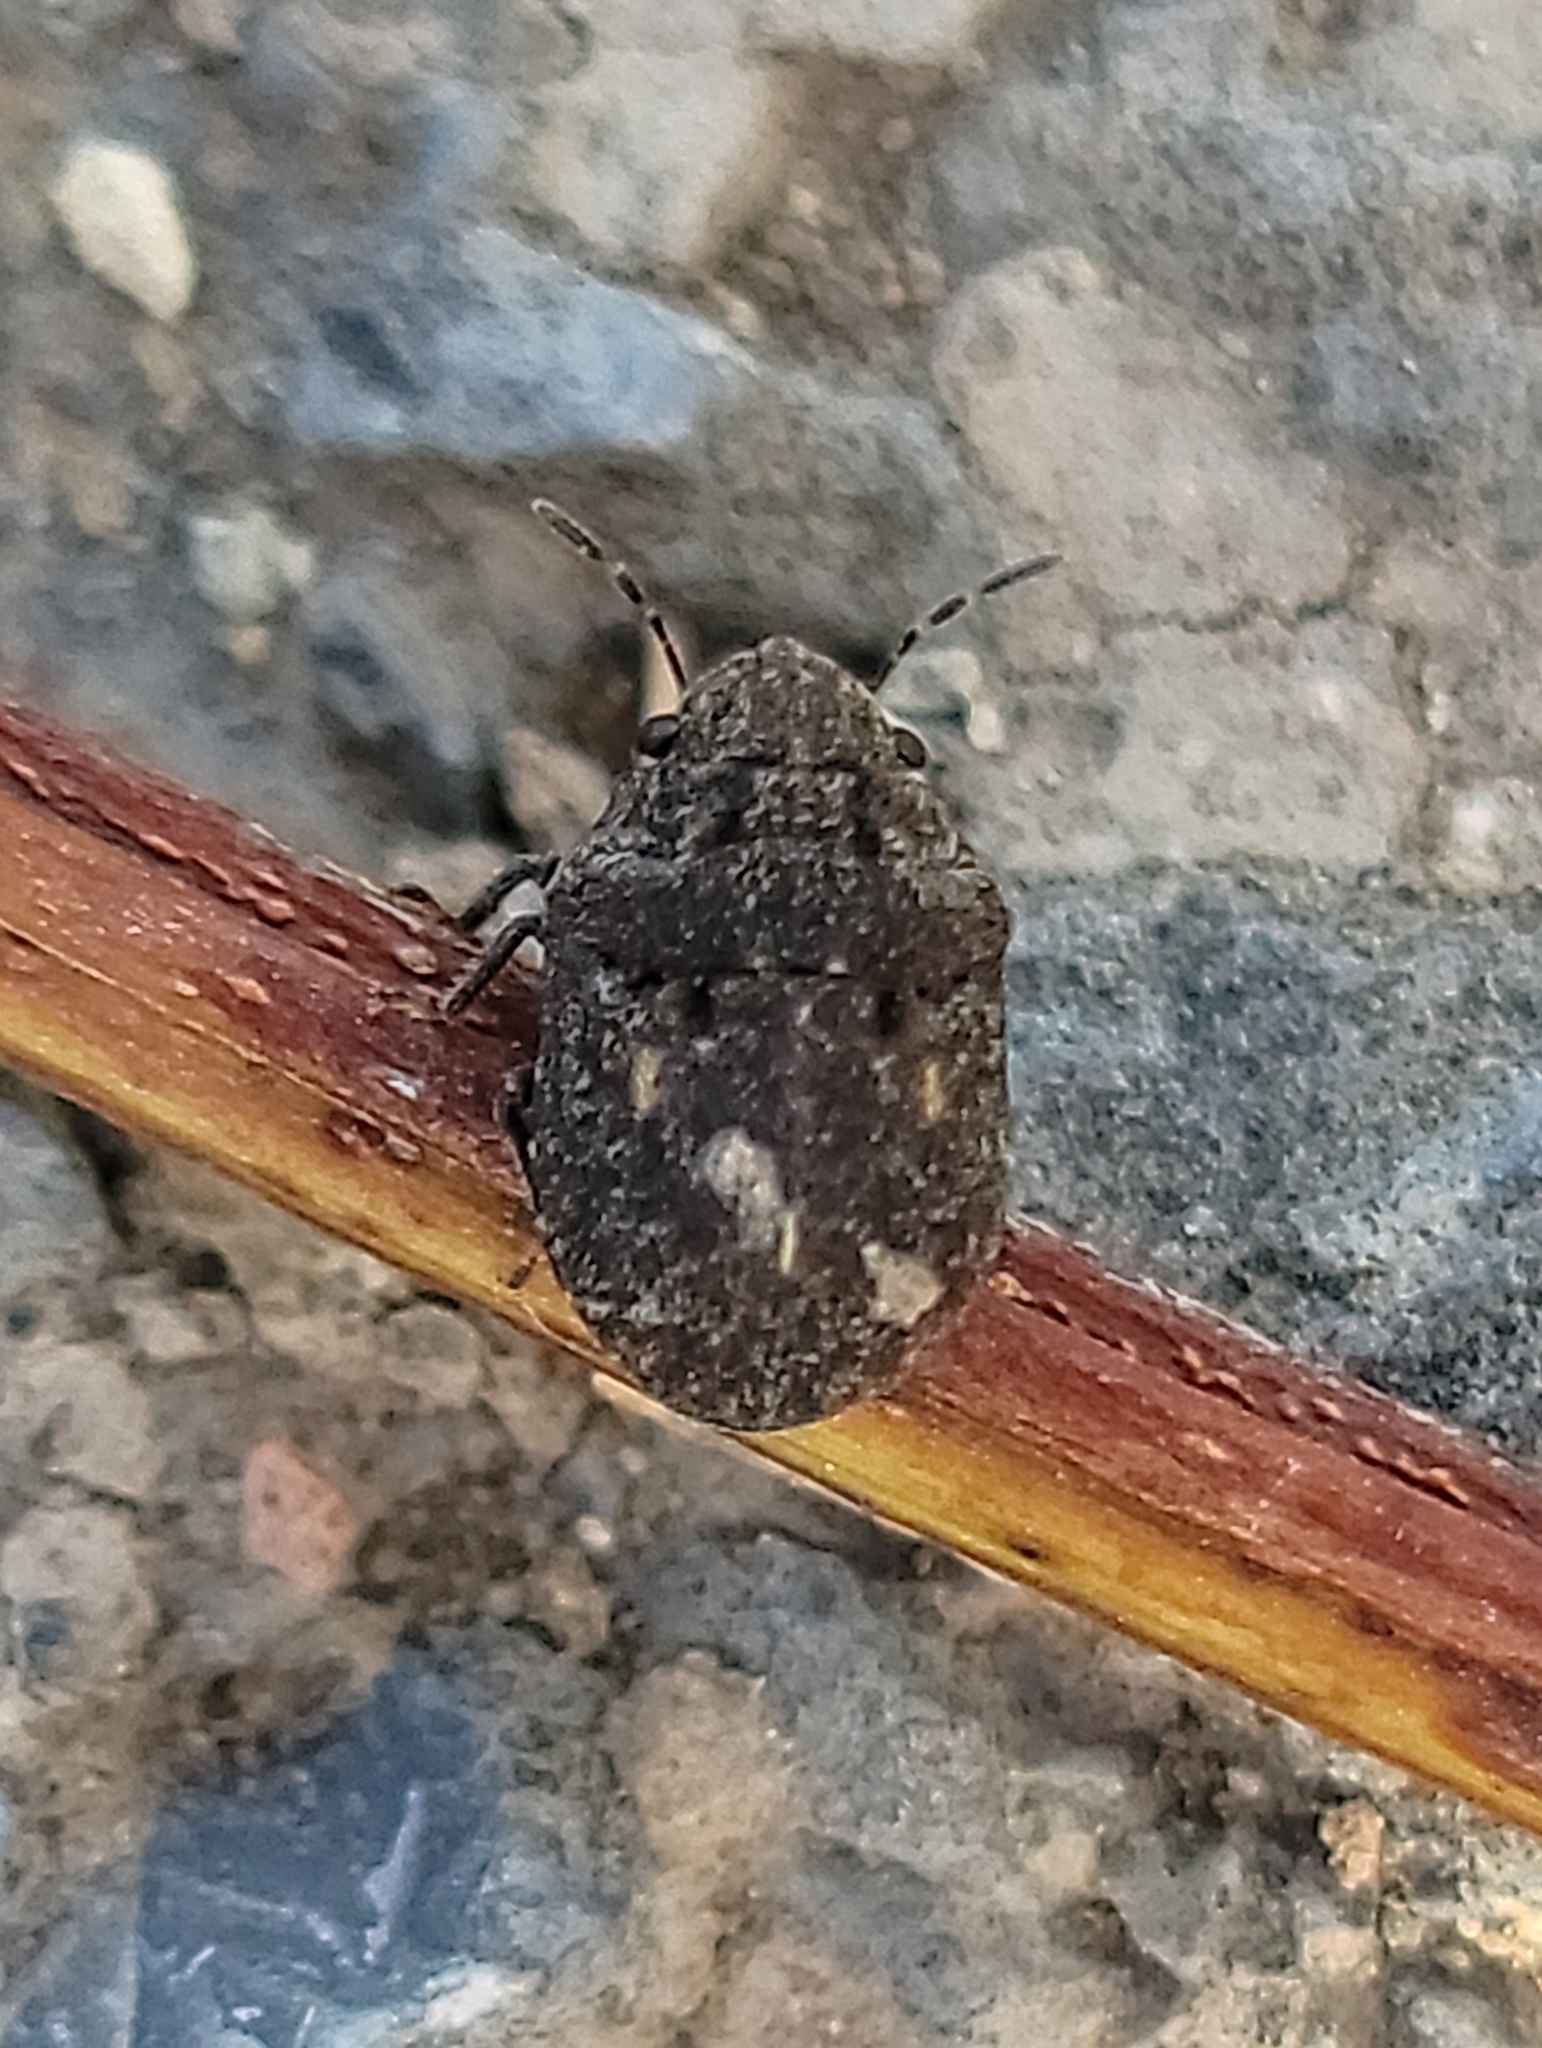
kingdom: Animalia
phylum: Arthropoda
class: Insecta
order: Hemiptera
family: Scutelleridae
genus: Camirus
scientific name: Camirus porosus
